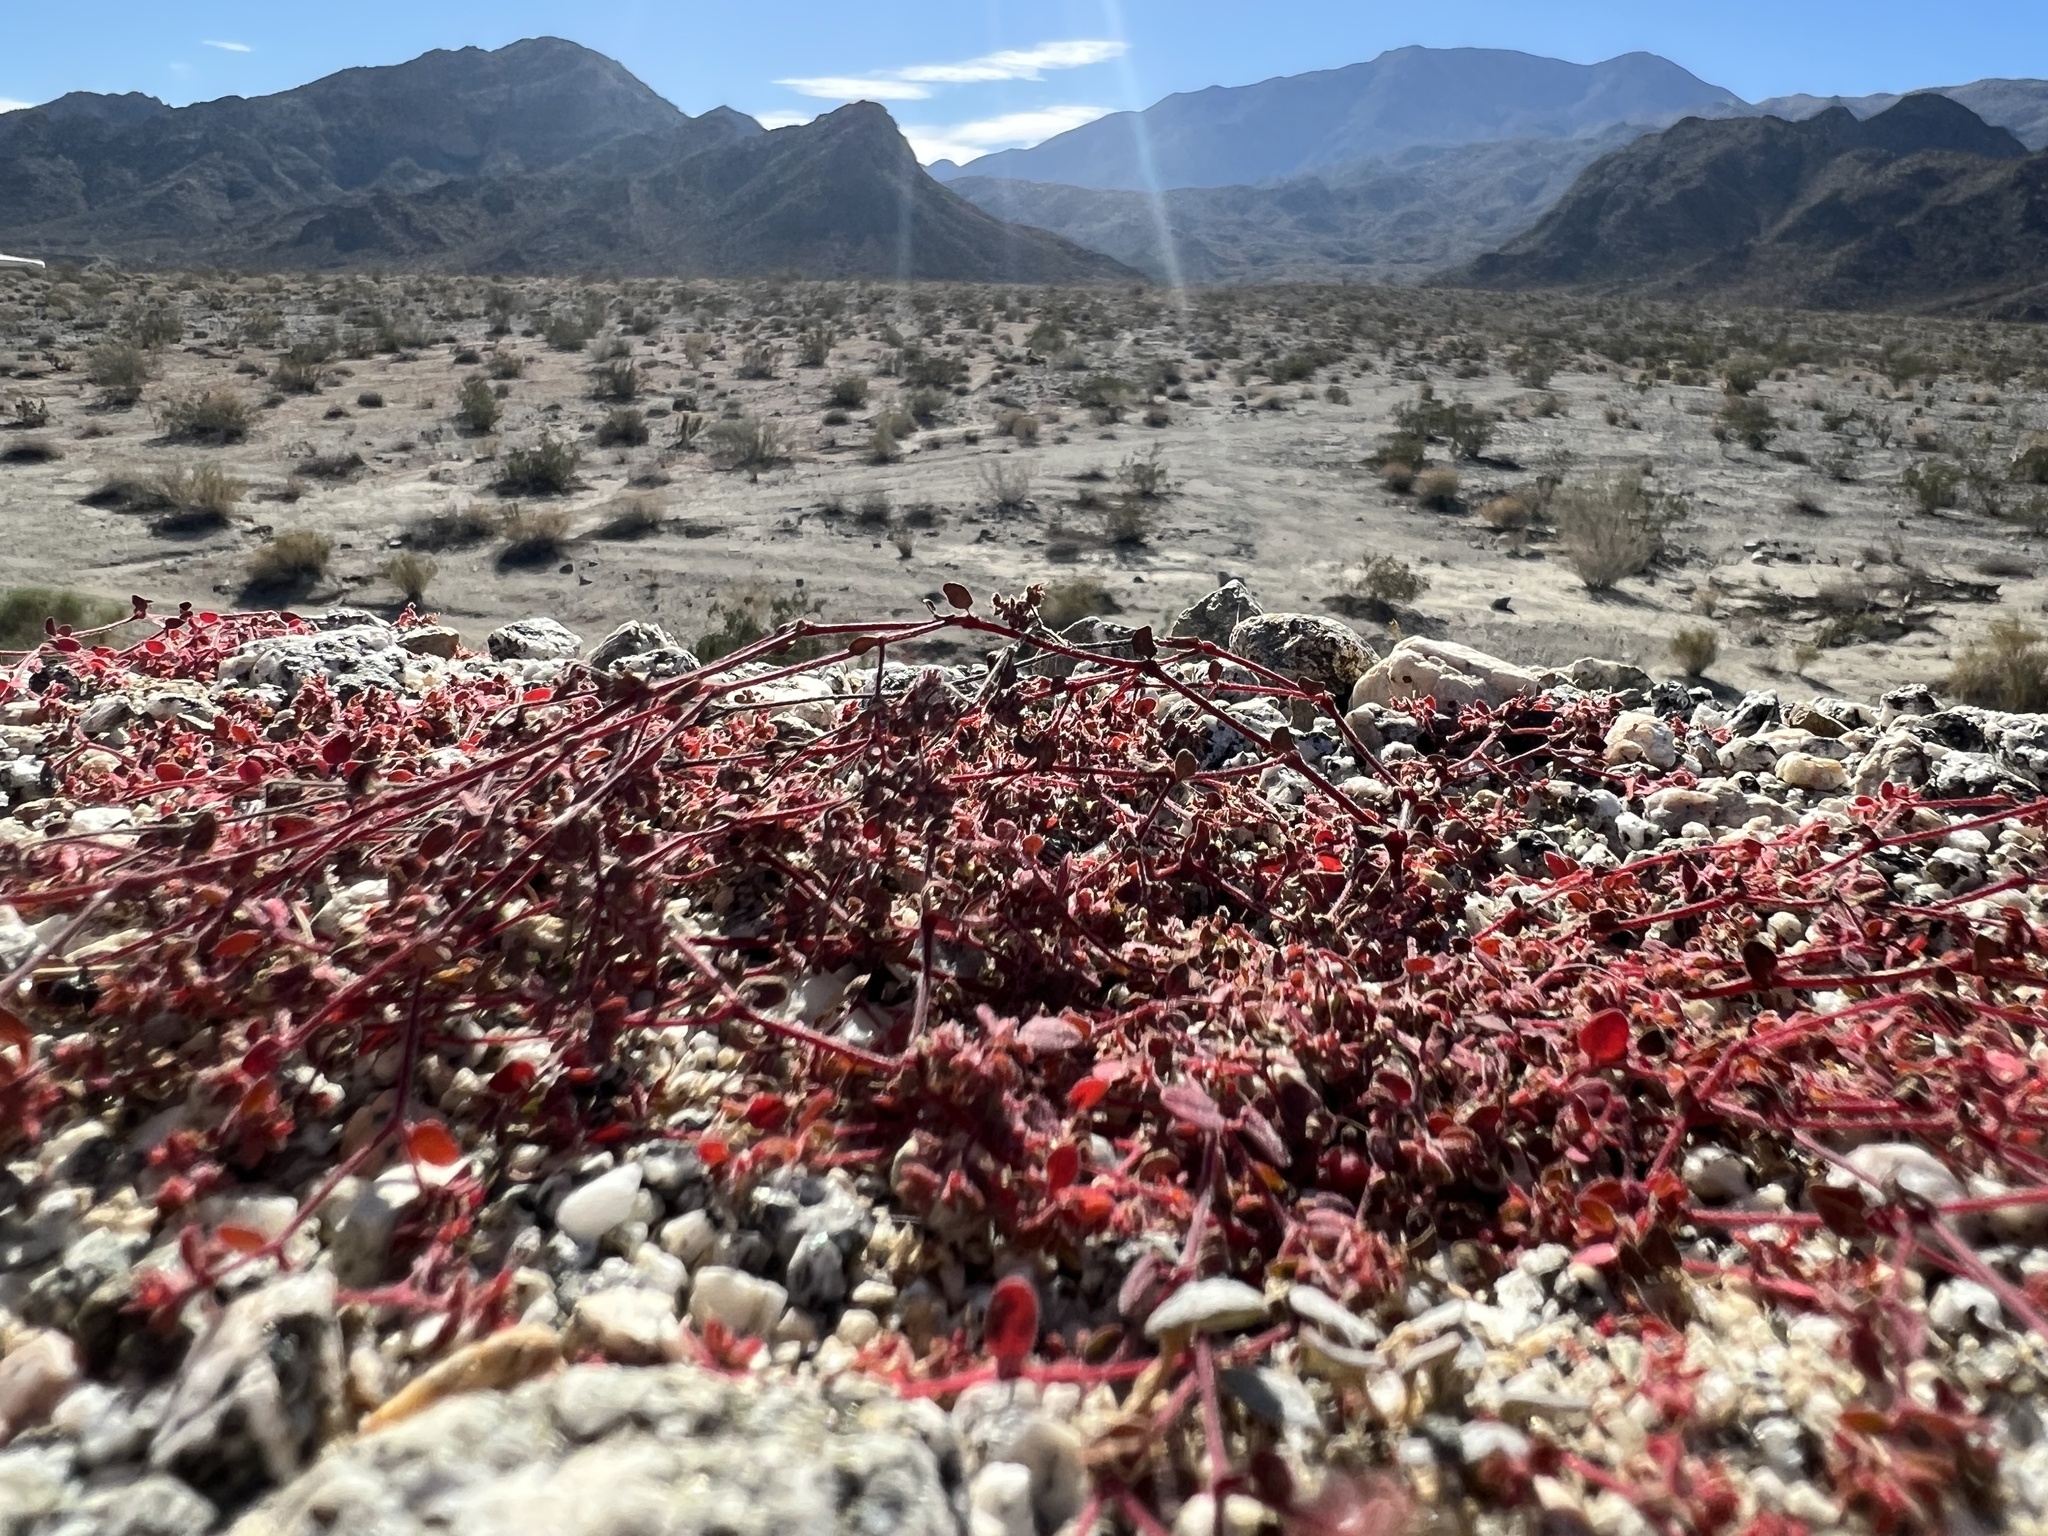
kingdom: Plantae
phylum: Tracheophyta
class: Magnoliopsida
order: Malpighiales
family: Euphorbiaceae
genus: Euphorbia
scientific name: Euphorbia setiloba
